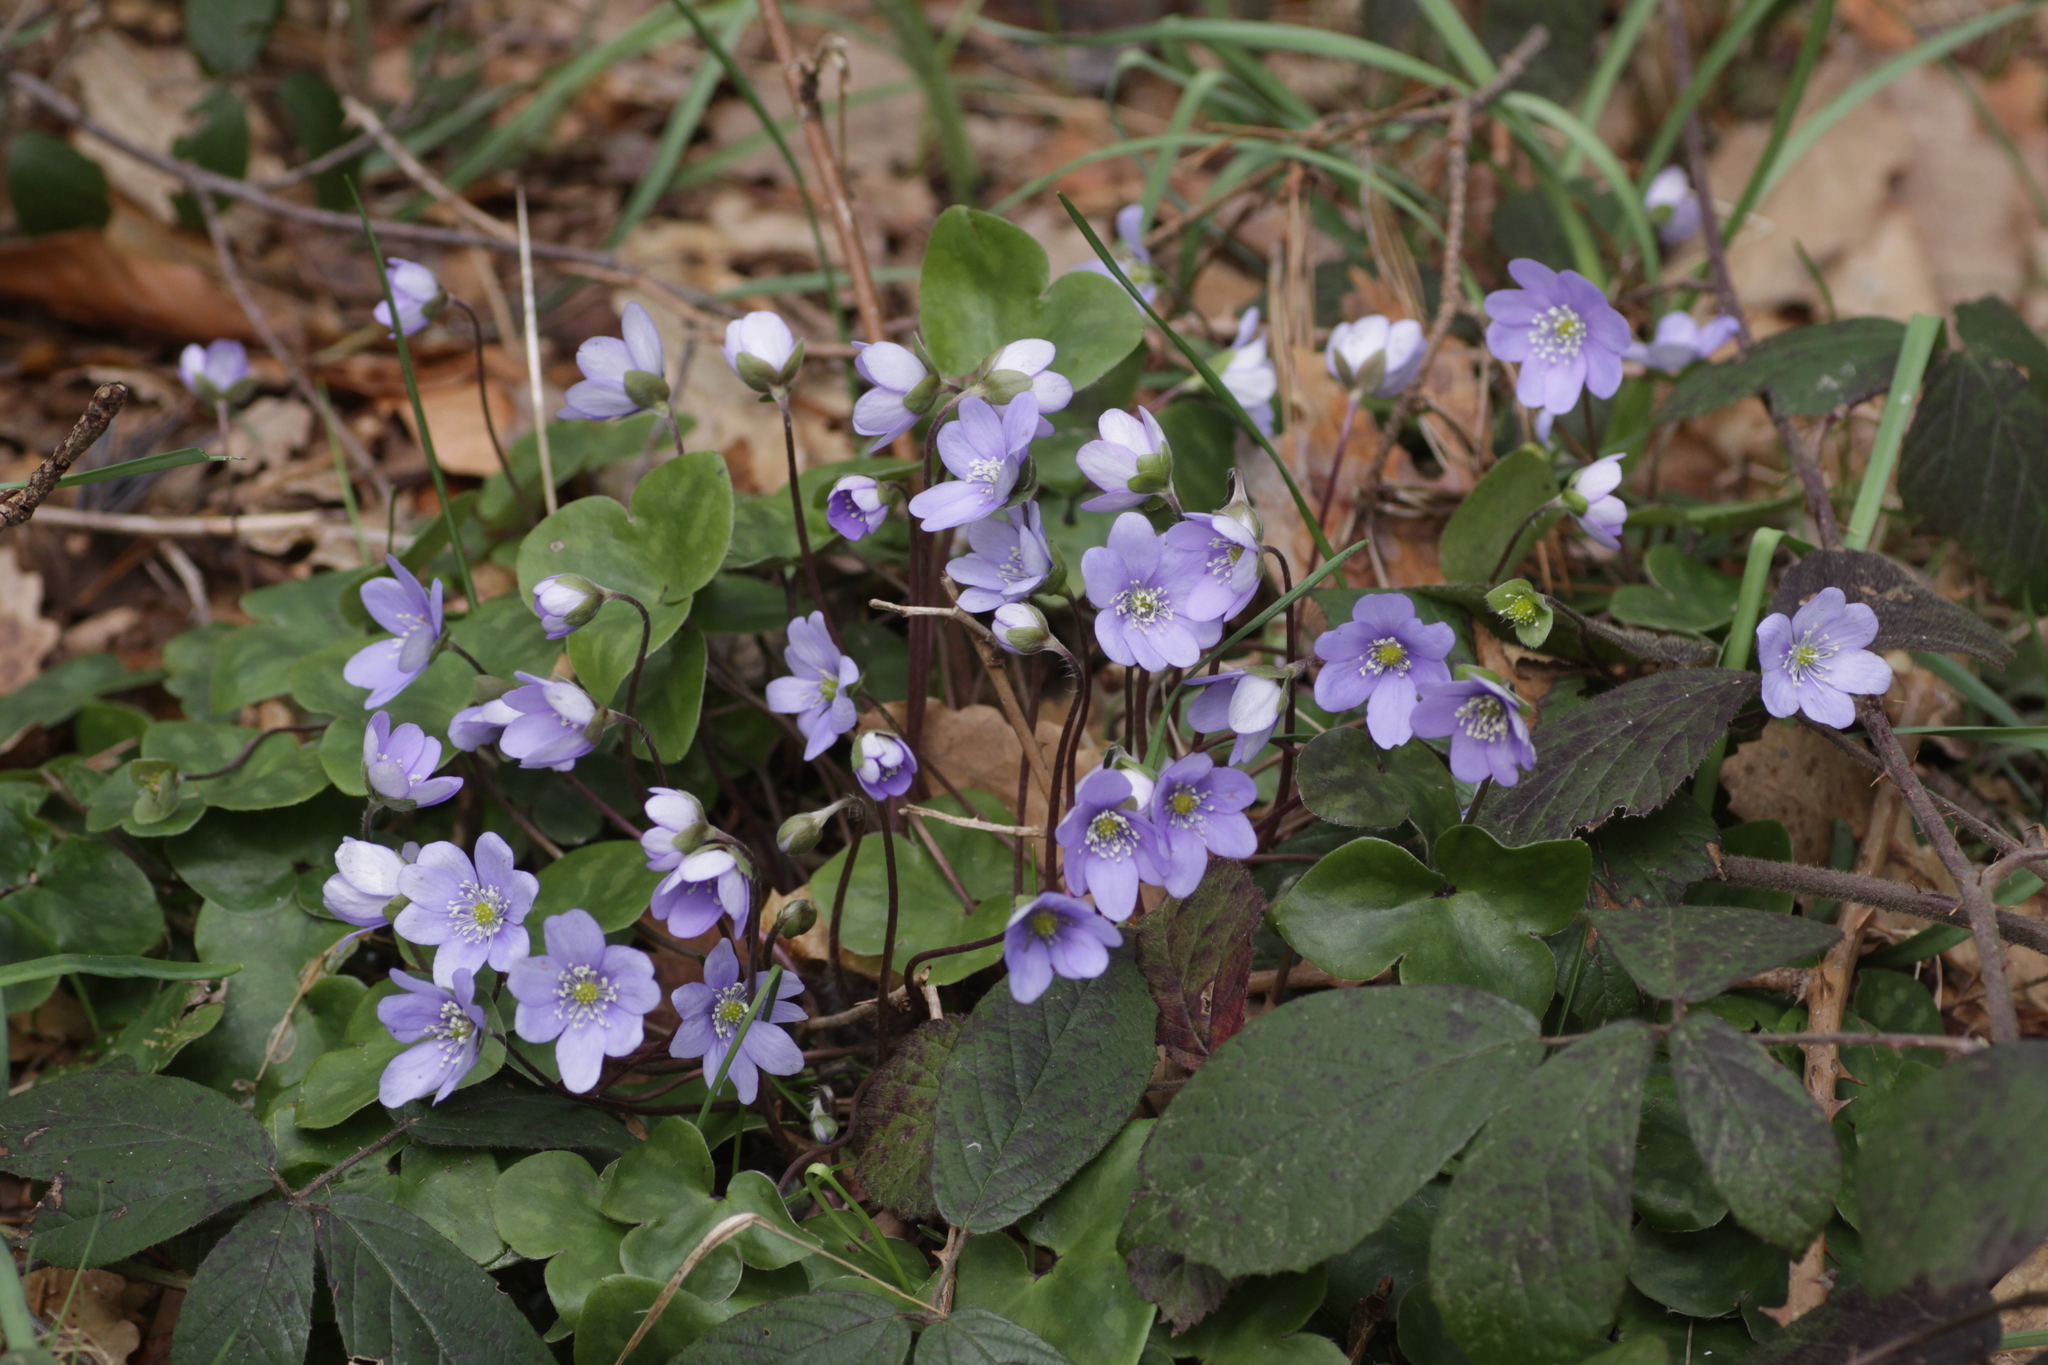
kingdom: Plantae
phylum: Tracheophyta
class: Magnoliopsida
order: Ranunculales
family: Ranunculaceae
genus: Hepatica
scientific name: Hepatica nobilis
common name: Liverleaf
